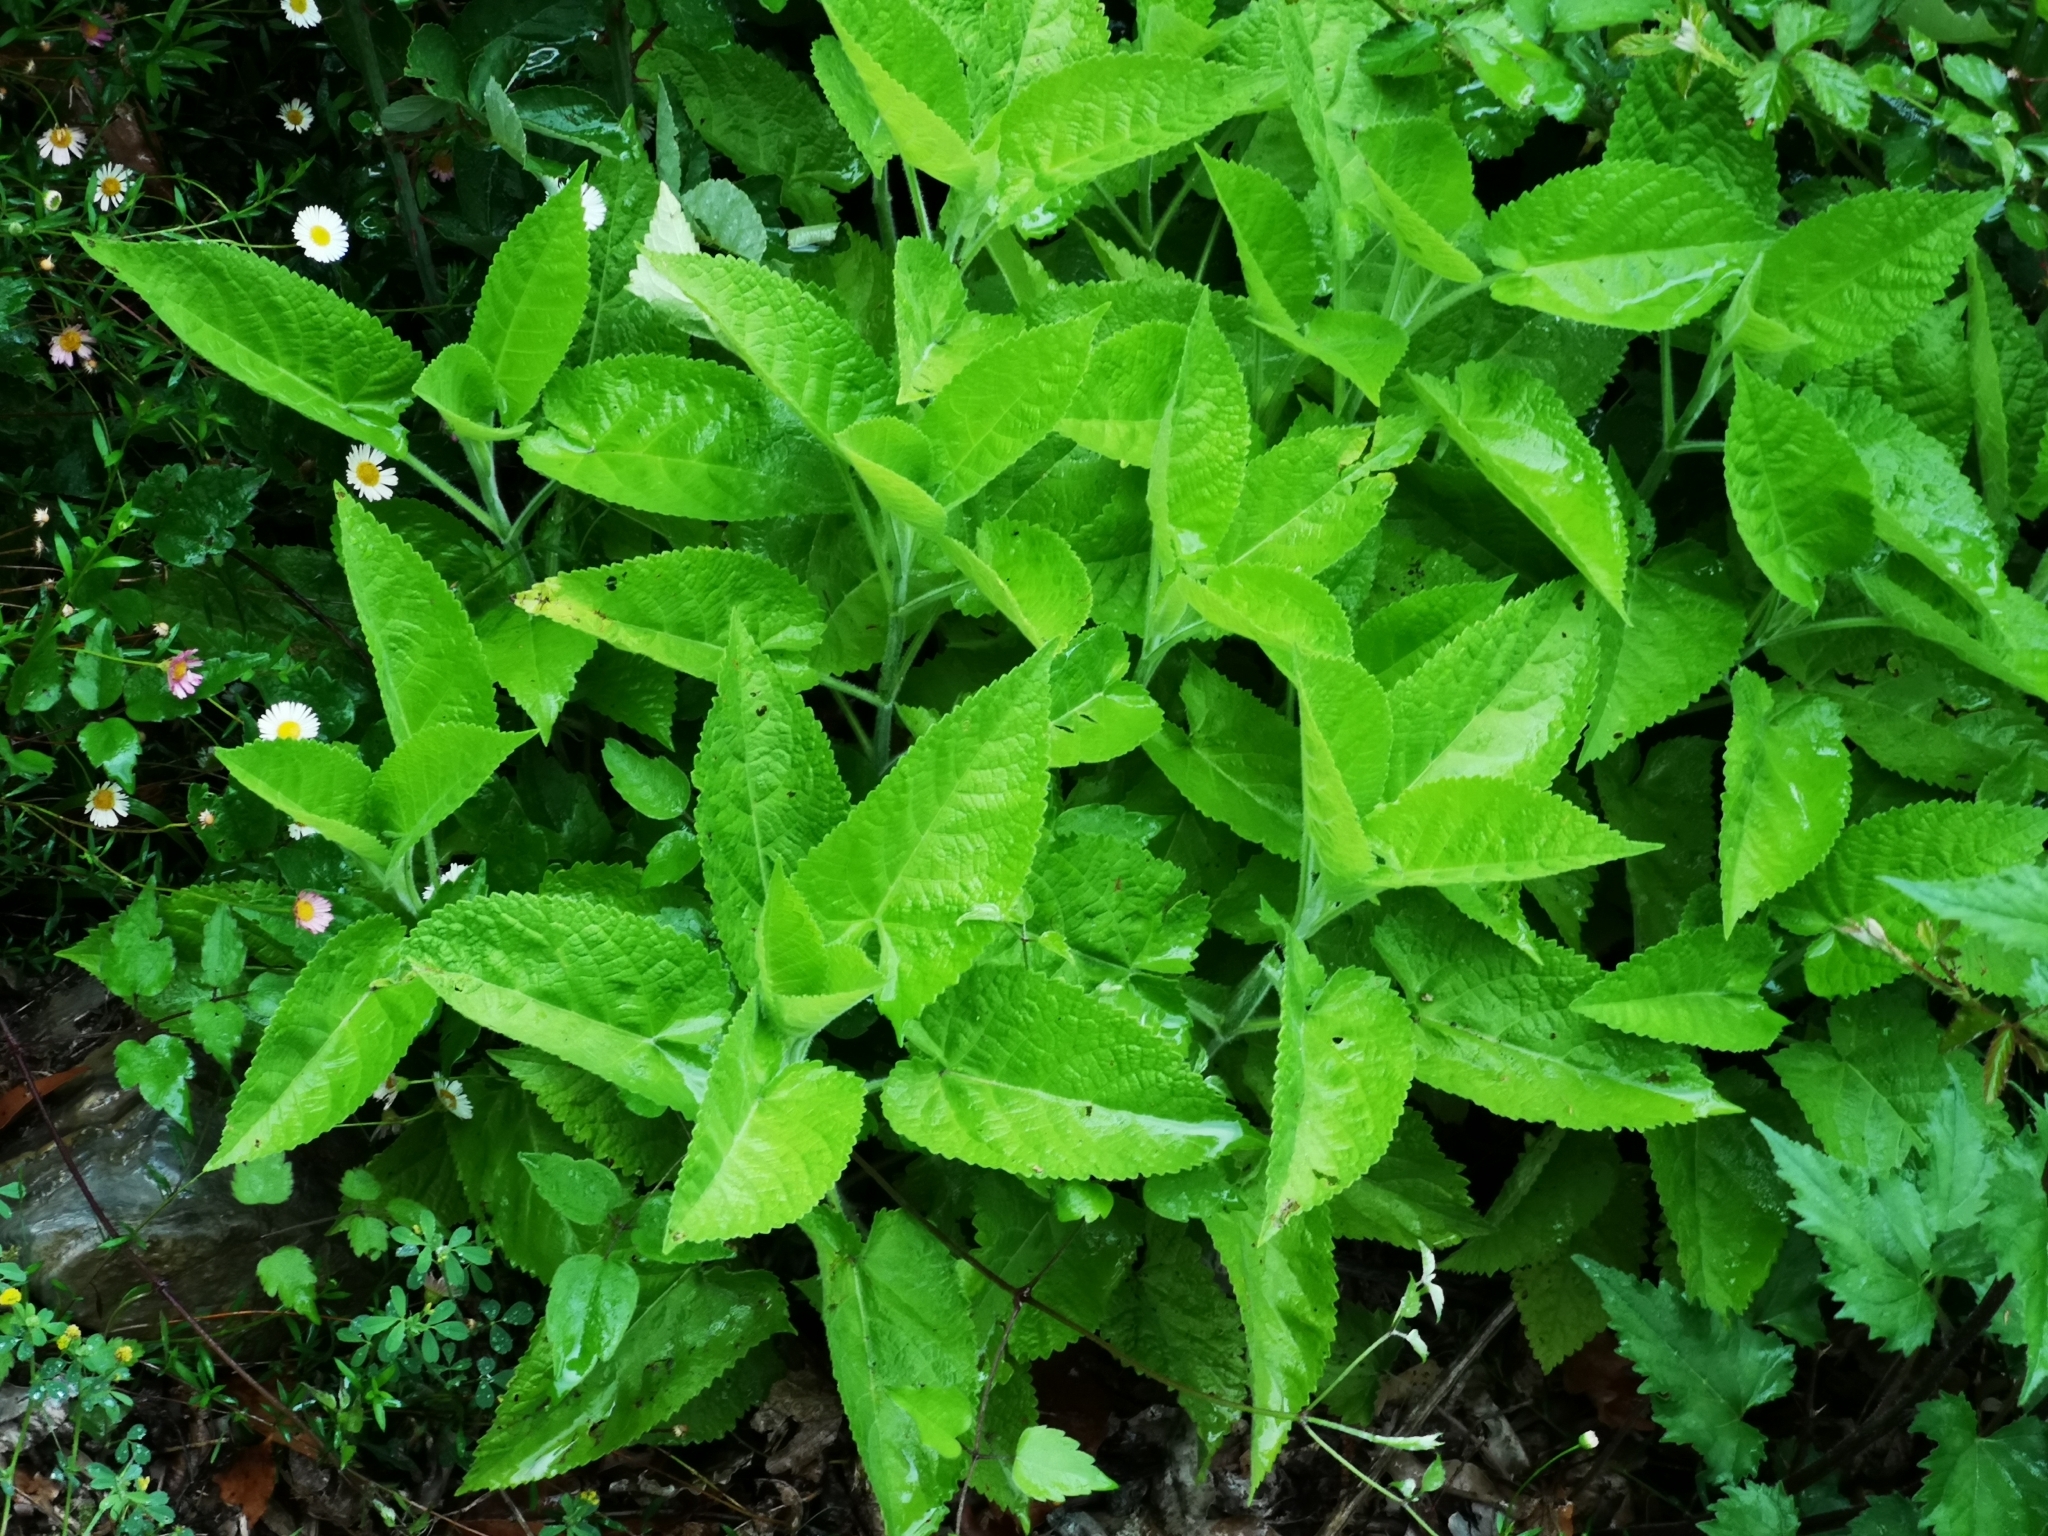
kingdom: Plantae
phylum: Tracheophyta
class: Magnoliopsida
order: Lamiales
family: Lamiaceae
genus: Salvia
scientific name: Salvia glutinosa
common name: Sticky clary
